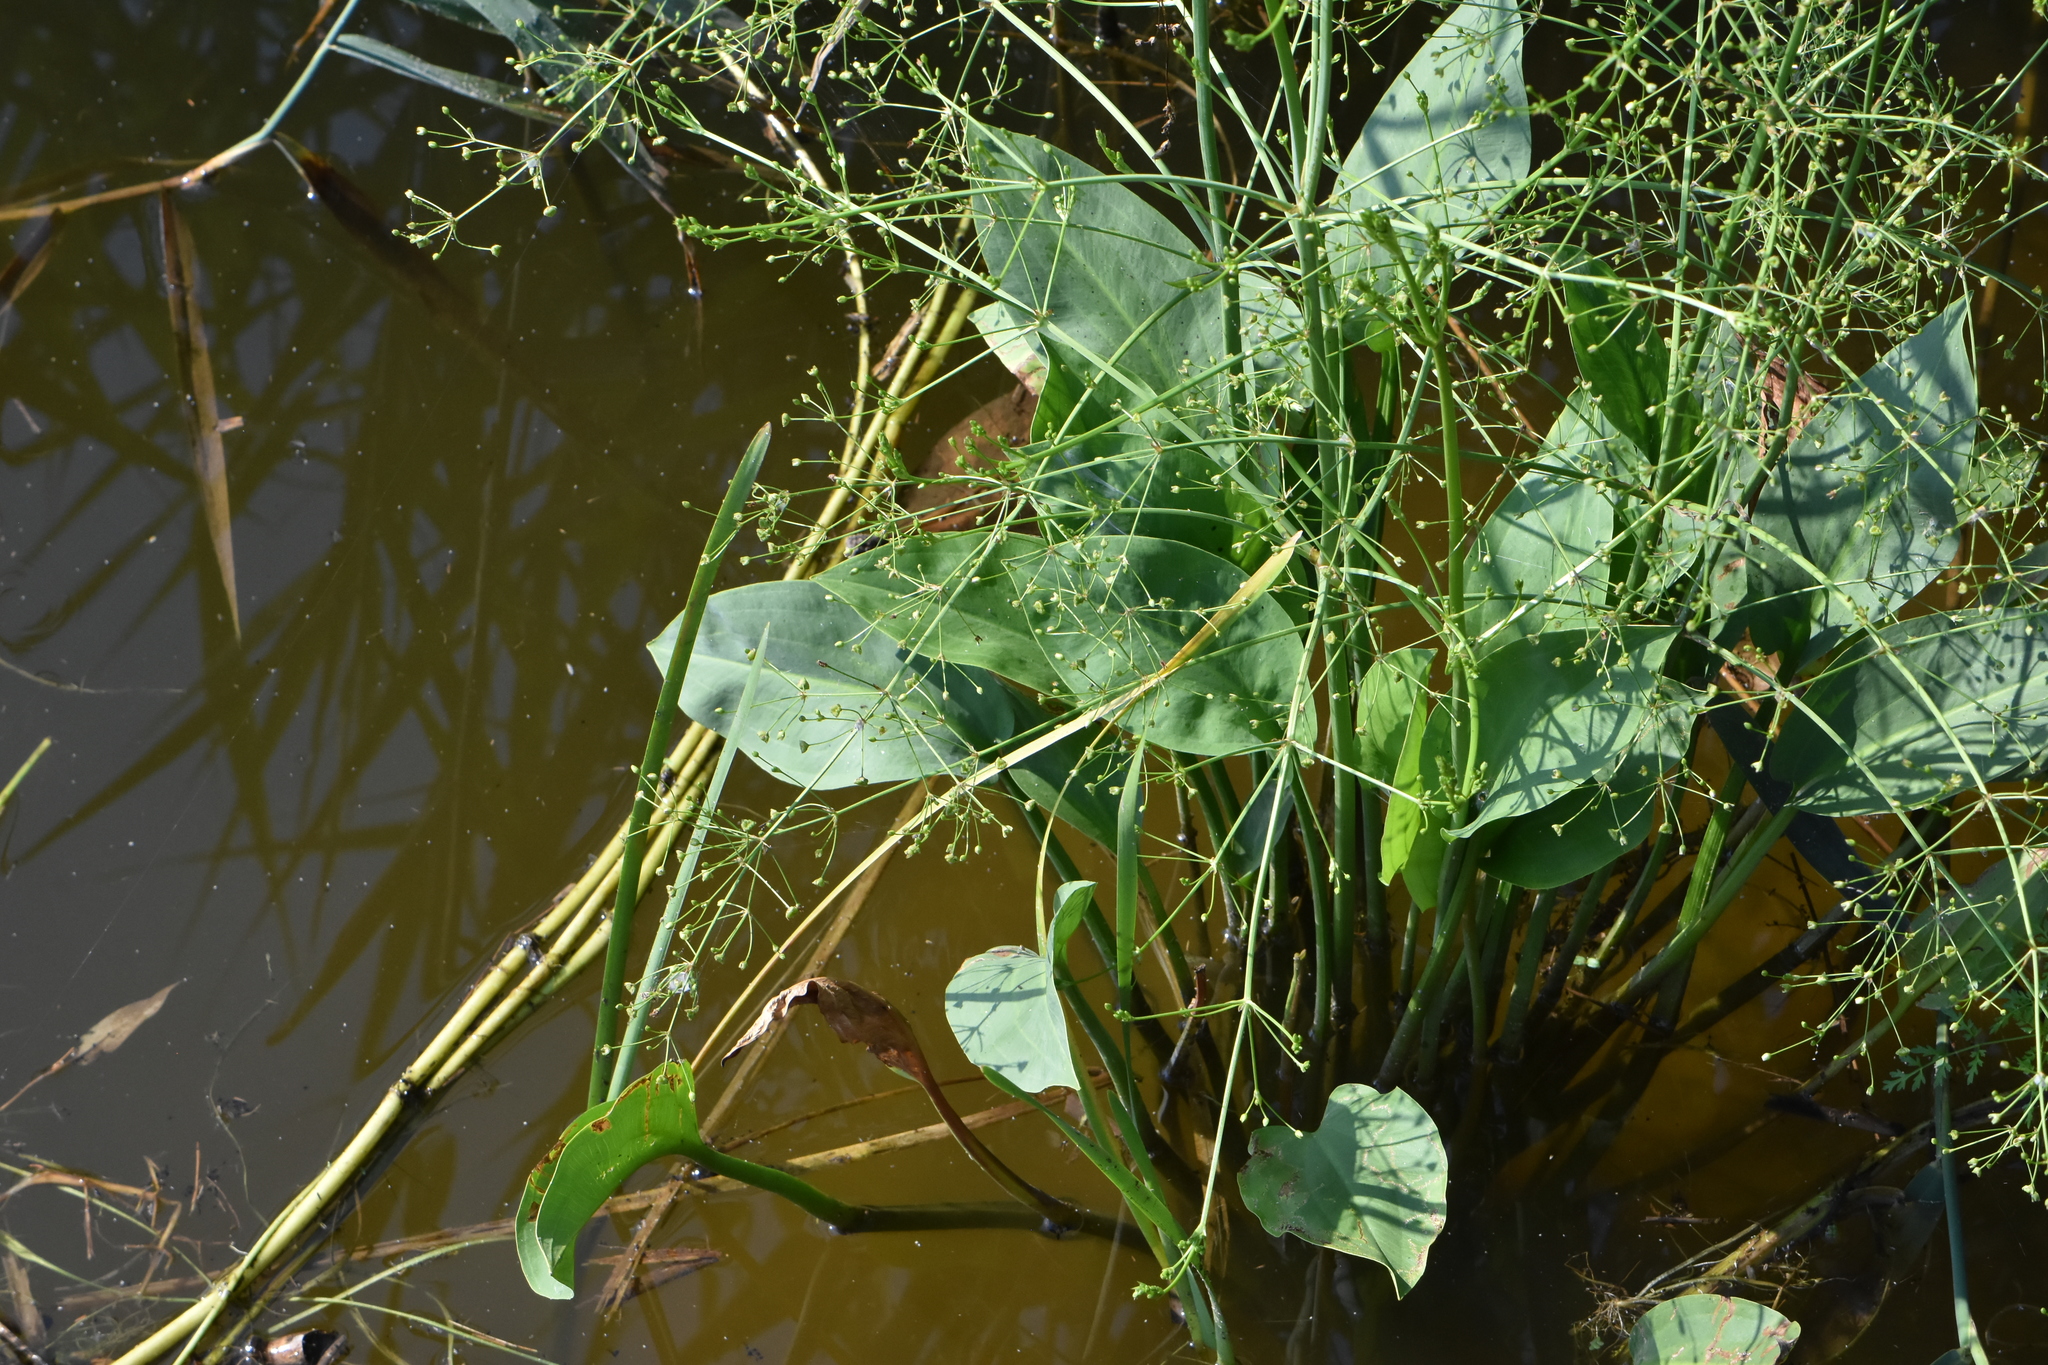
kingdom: Plantae
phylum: Tracheophyta
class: Liliopsida
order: Alismatales
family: Alismataceae
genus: Alisma
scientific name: Alisma plantago-aquatica
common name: Water-plantain
